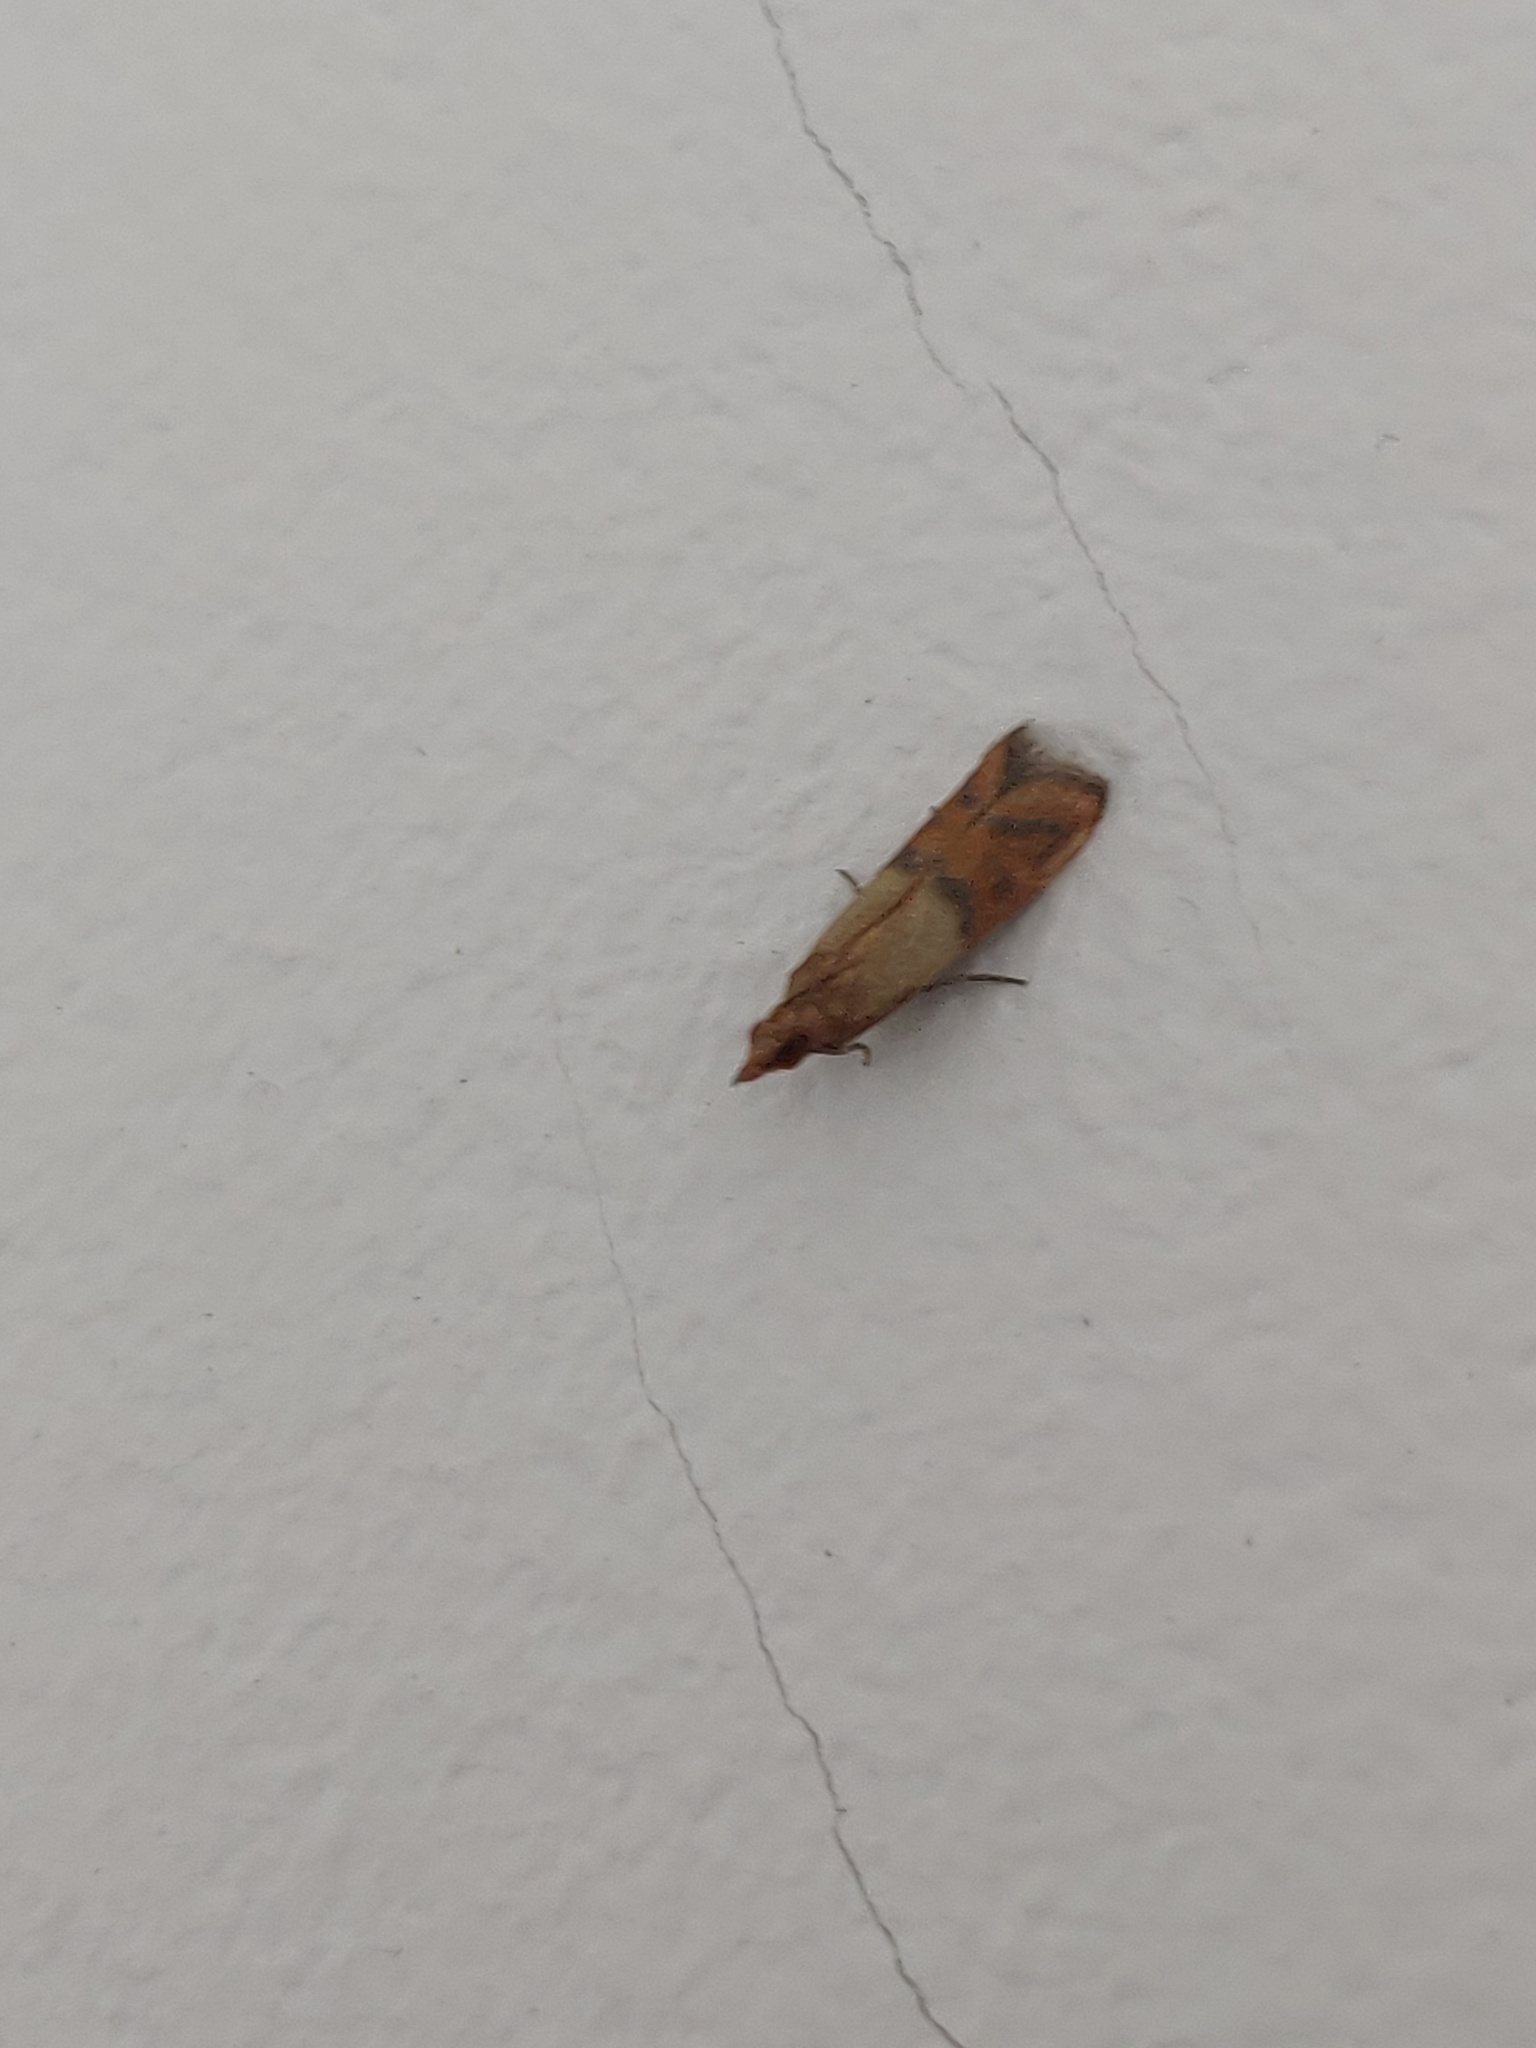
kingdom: Animalia
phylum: Arthropoda
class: Insecta
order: Lepidoptera
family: Pyralidae
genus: Plodia
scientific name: Plodia interpunctella
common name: Indian meal moth
